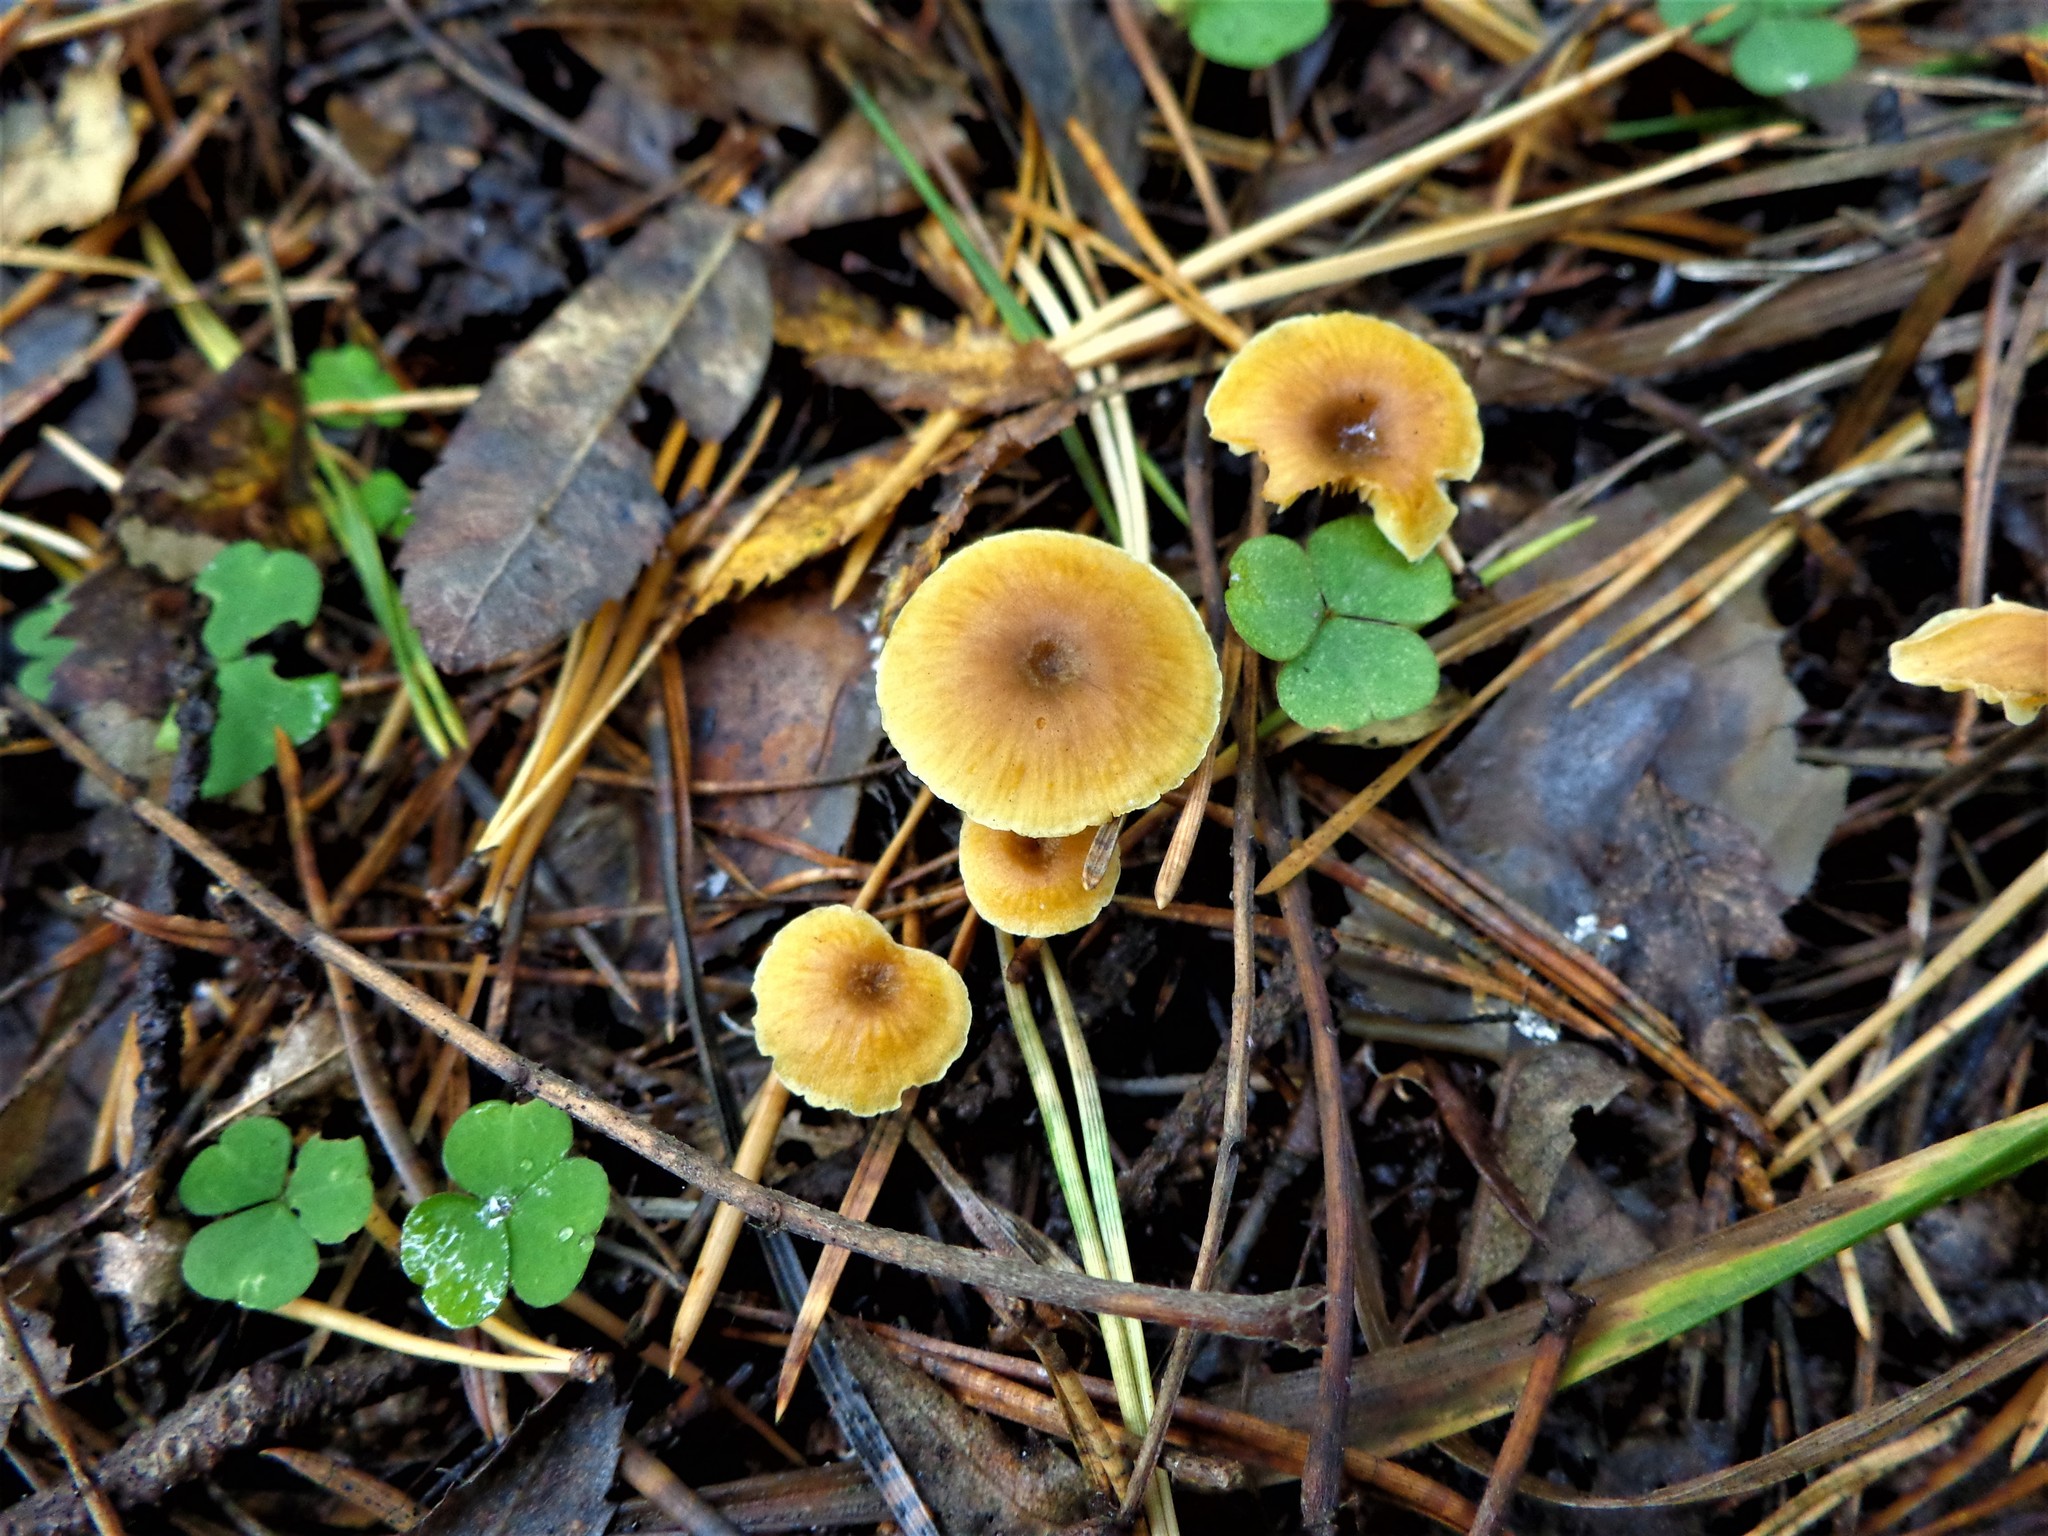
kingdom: Fungi
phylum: Basidiomycota
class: Agaricomycetes
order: Agaricales
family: Mycenaceae
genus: Xeromphalina
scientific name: Xeromphalina cauticinalis
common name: Pinelitter gingertail
